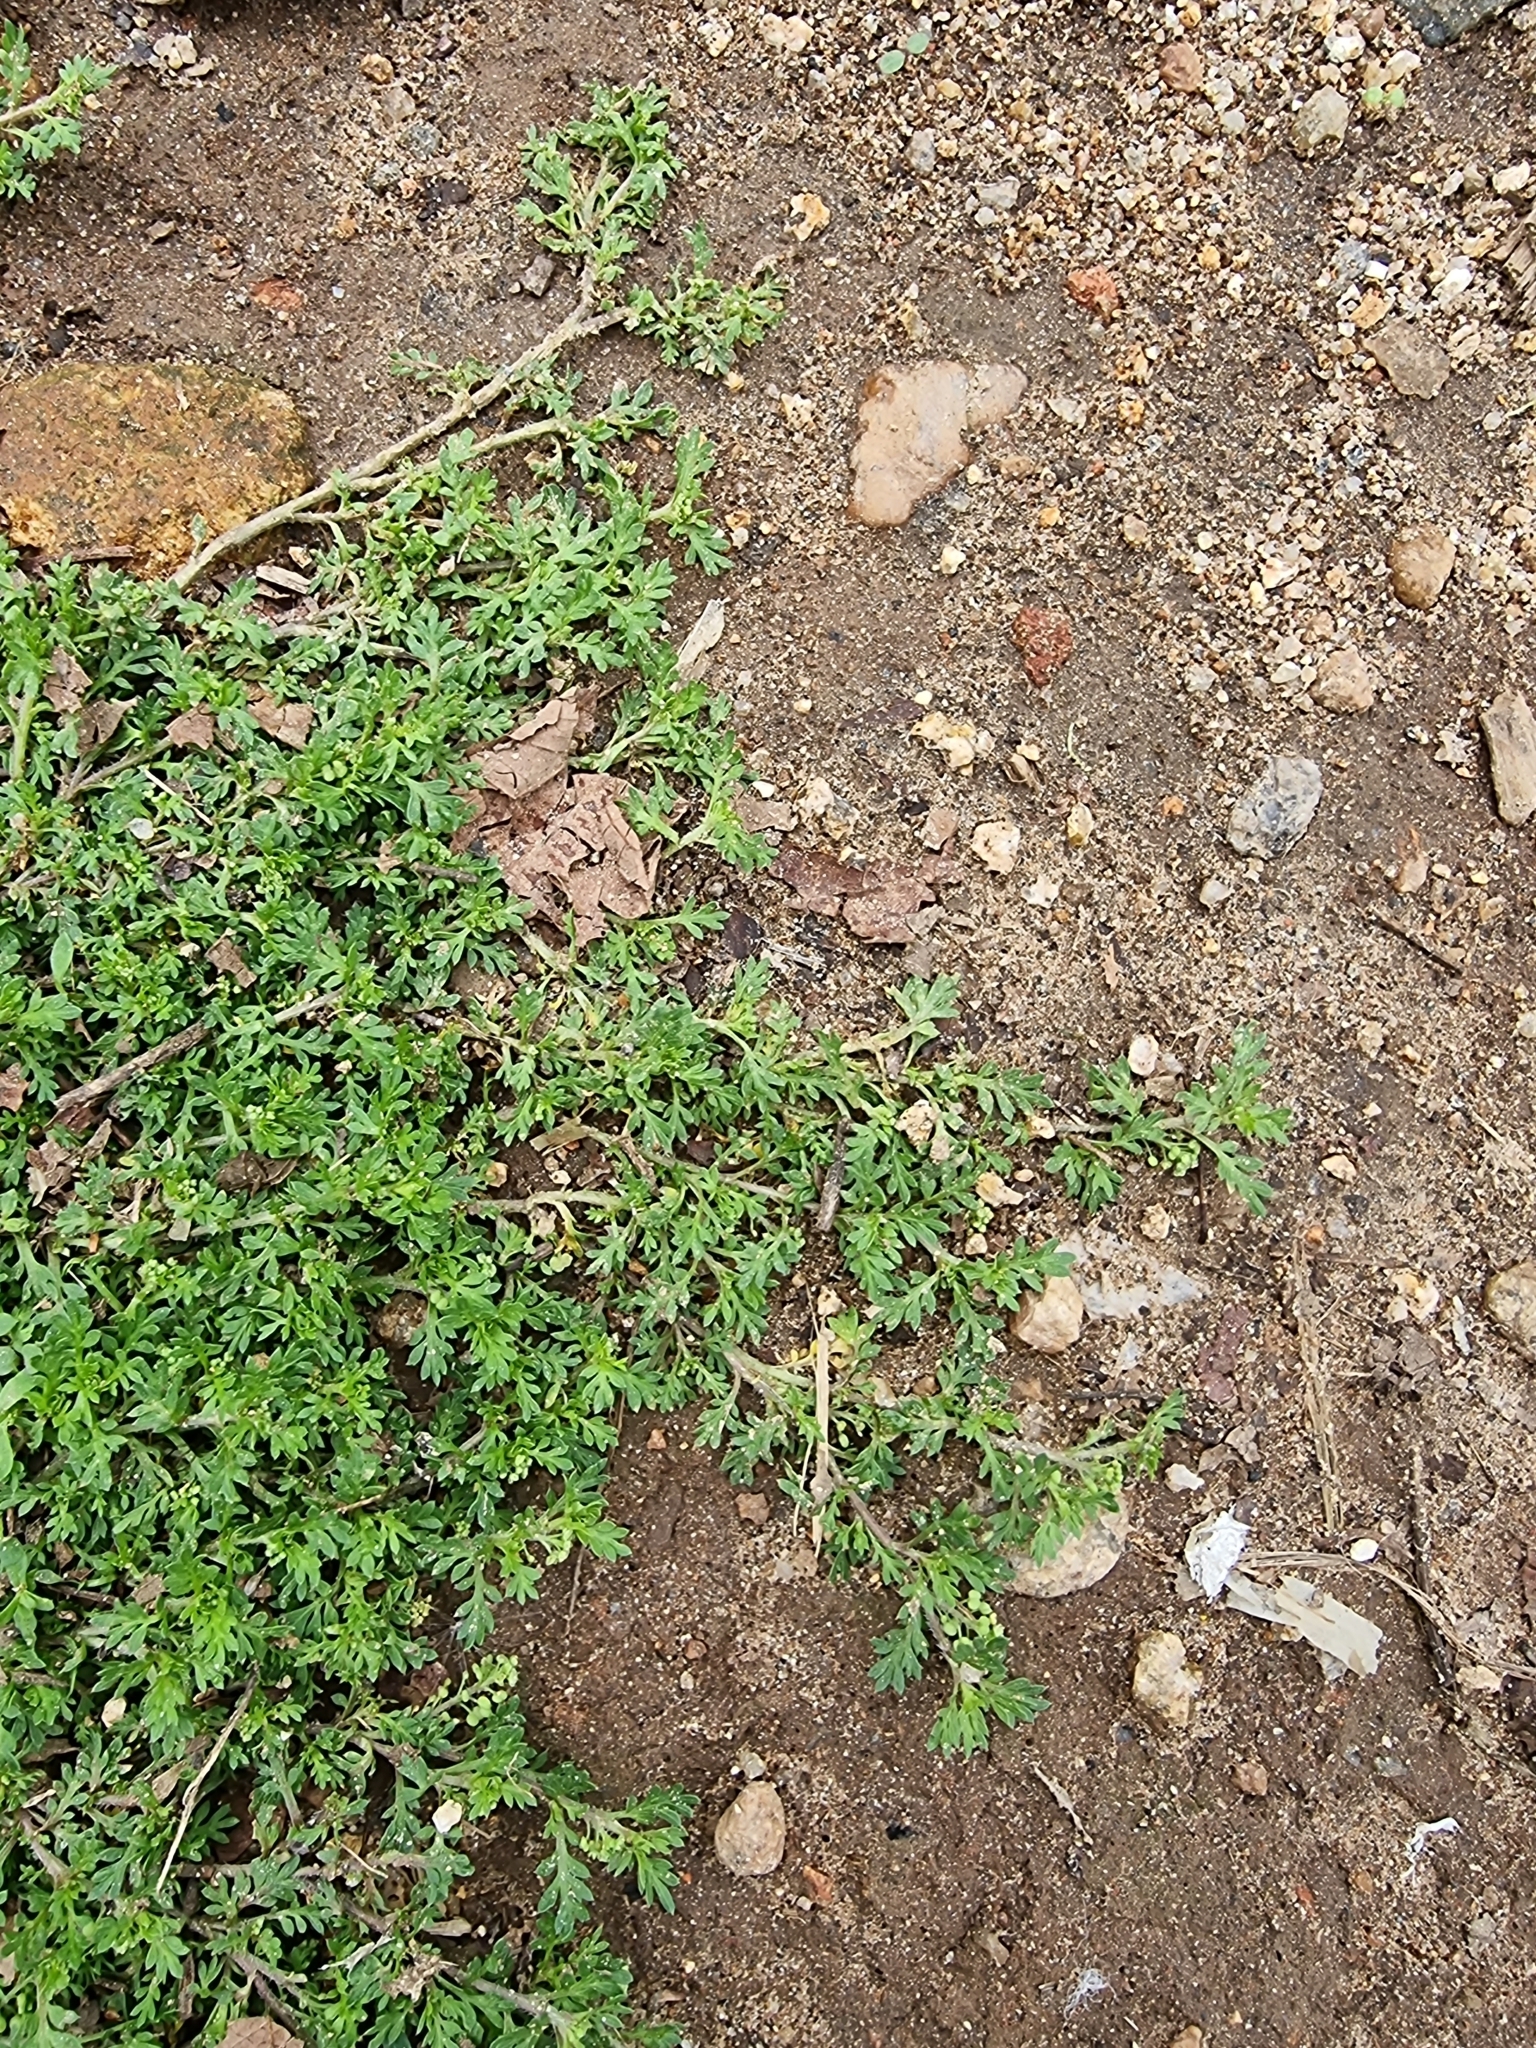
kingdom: Plantae
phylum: Tracheophyta
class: Magnoliopsida
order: Brassicales
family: Brassicaceae
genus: Lepidium
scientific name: Lepidium didymum
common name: Lesser swinecress
